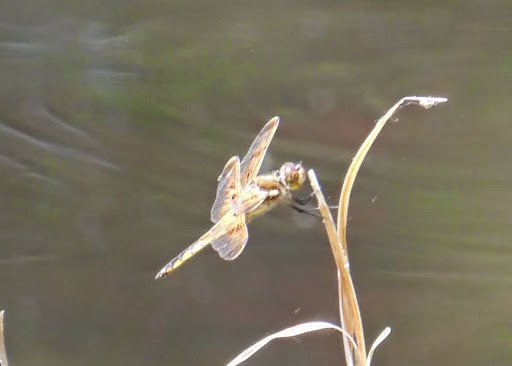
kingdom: Animalia
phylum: Arthropoda
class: Insecta
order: Odonata
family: Libellulidae
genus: Libellula
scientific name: Libellula semifasciata
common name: Painted skimmer
